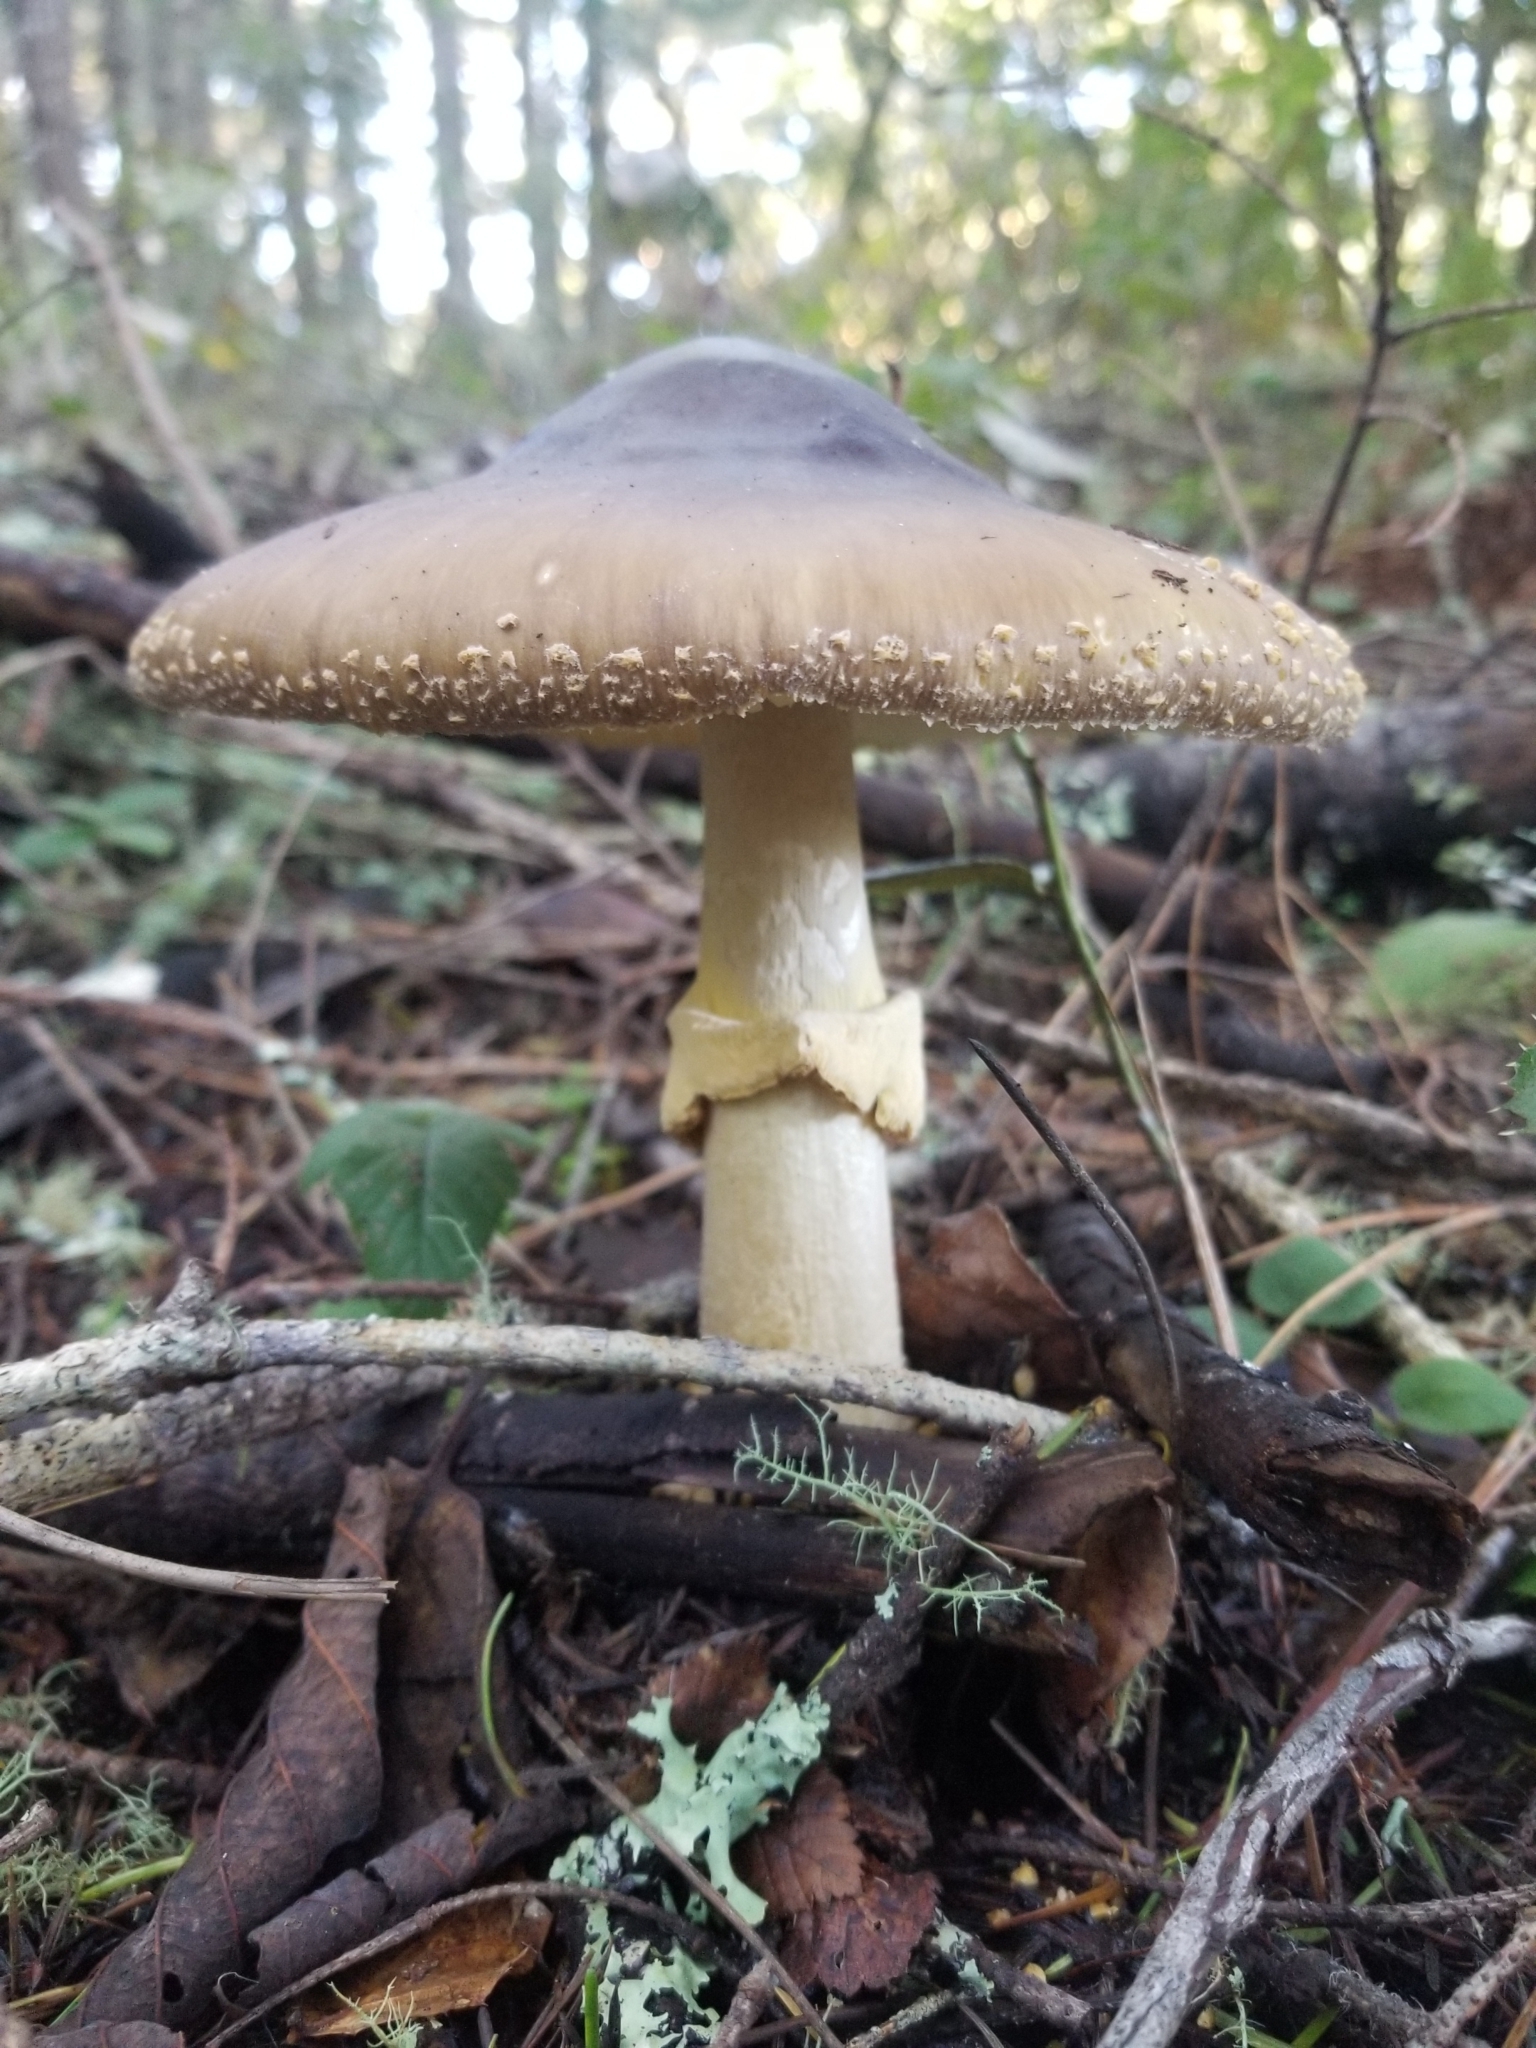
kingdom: Fungi
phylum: Basidiomycota
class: Agaricomycetes
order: Agaricales
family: Amanitaceae
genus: Amanita
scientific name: Amanita augusta
